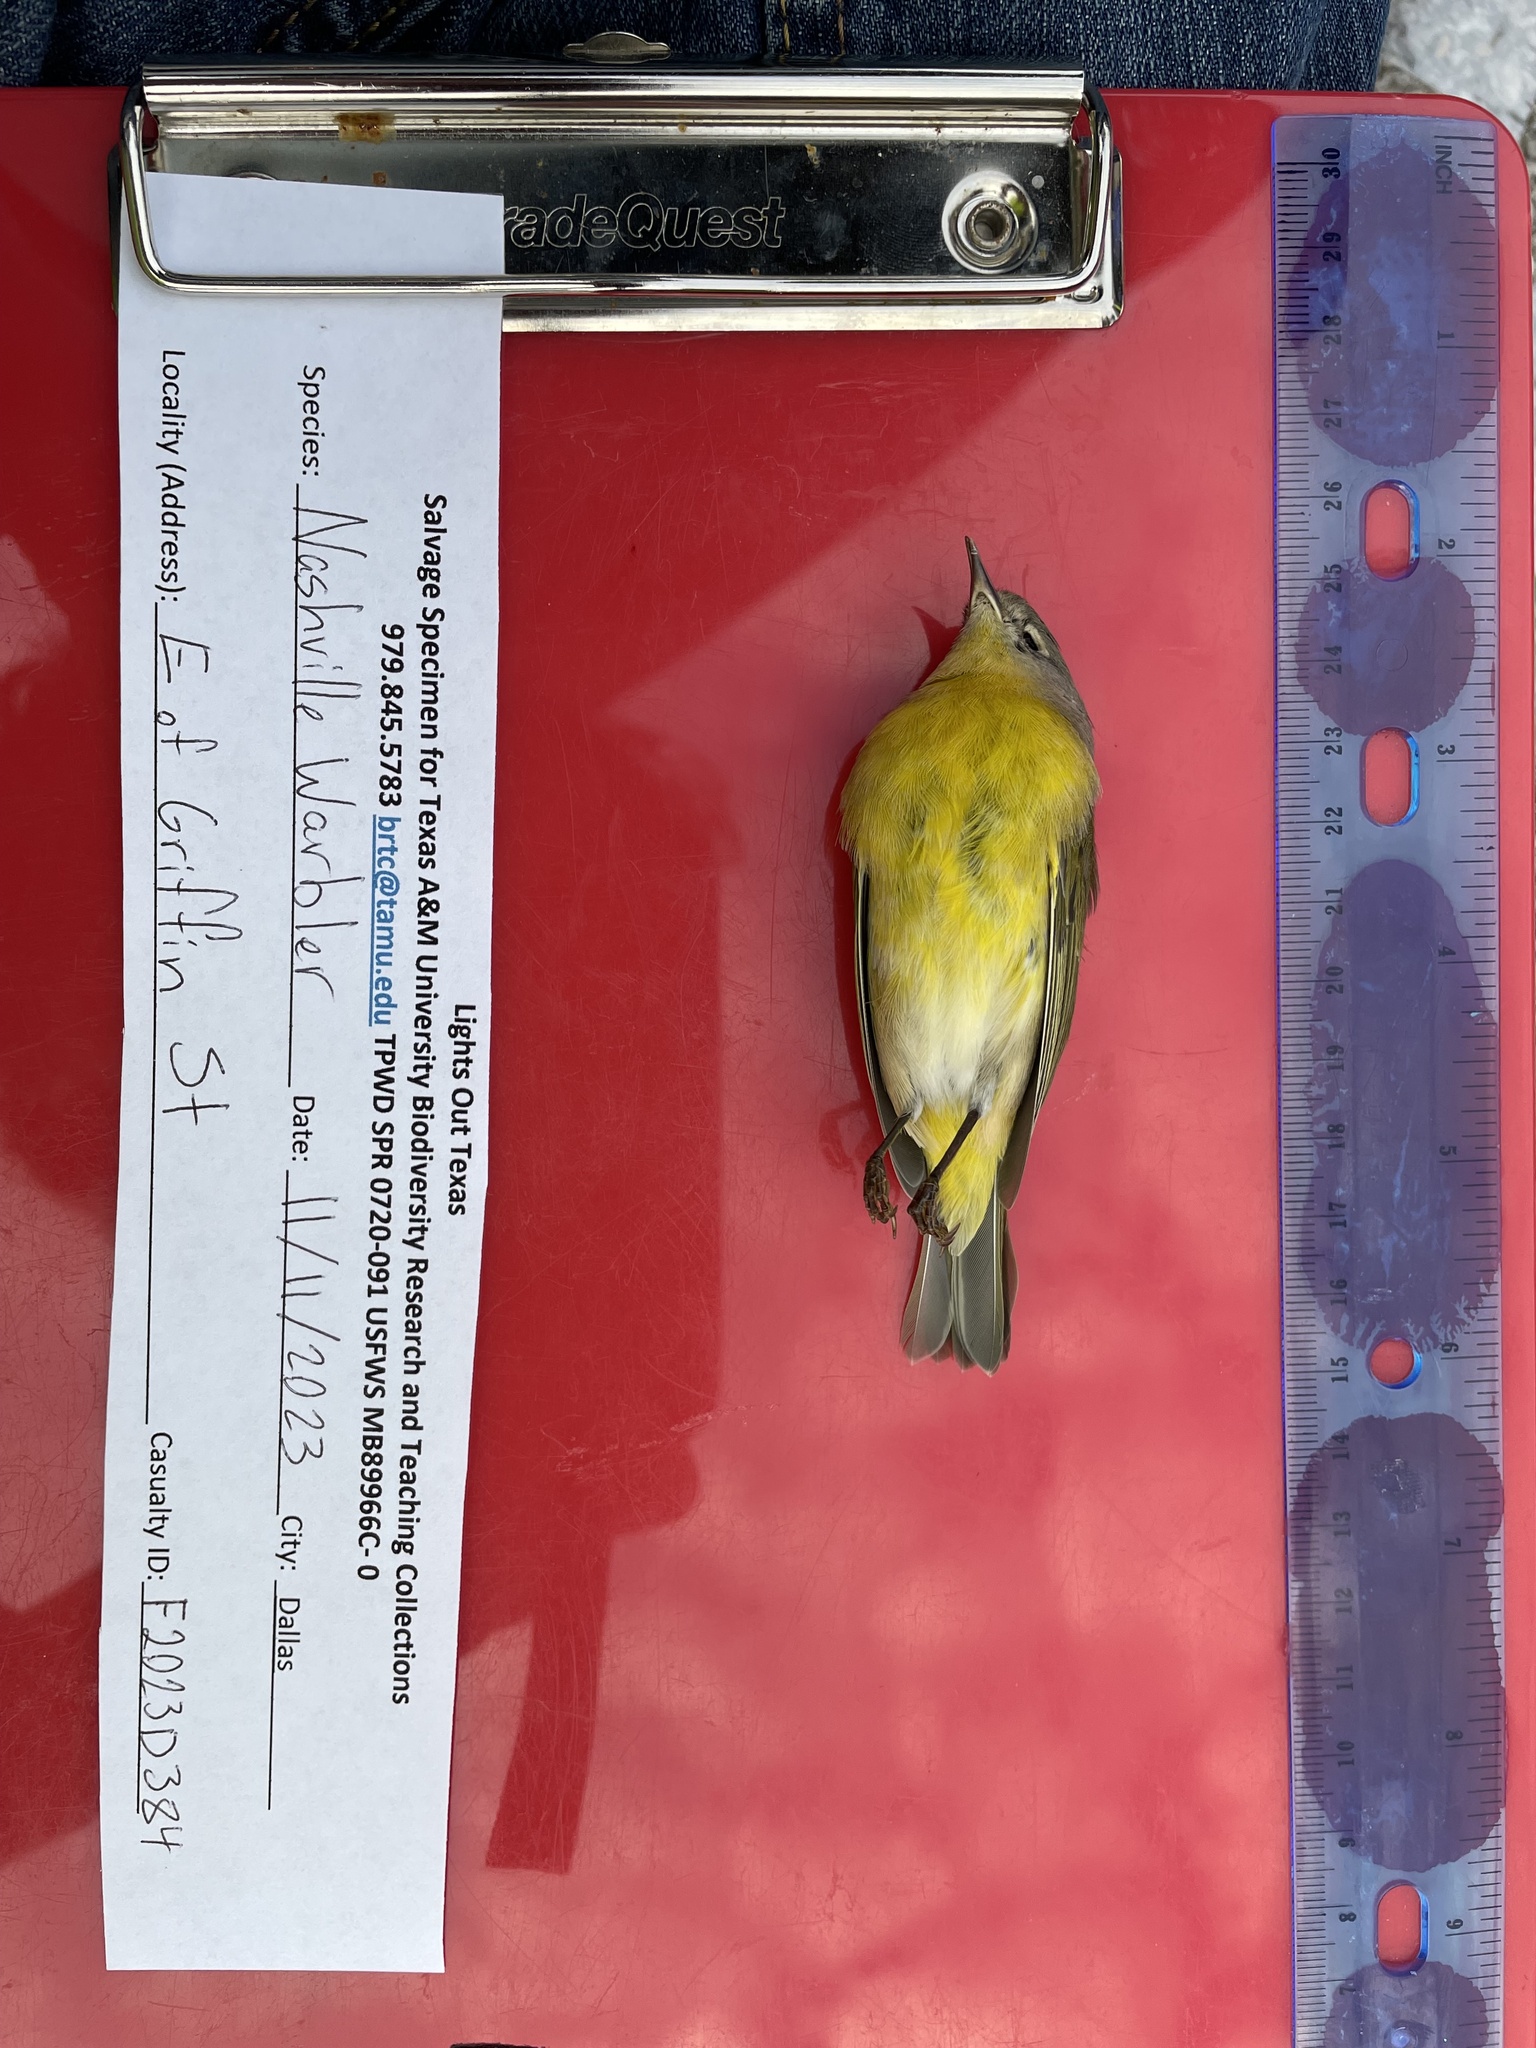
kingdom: Animalia
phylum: Chordata
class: Aves
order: Passeriformes
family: Parulidae
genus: Leiothlypis
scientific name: Leiothlypis ruficapilla
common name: Nashville warbler
